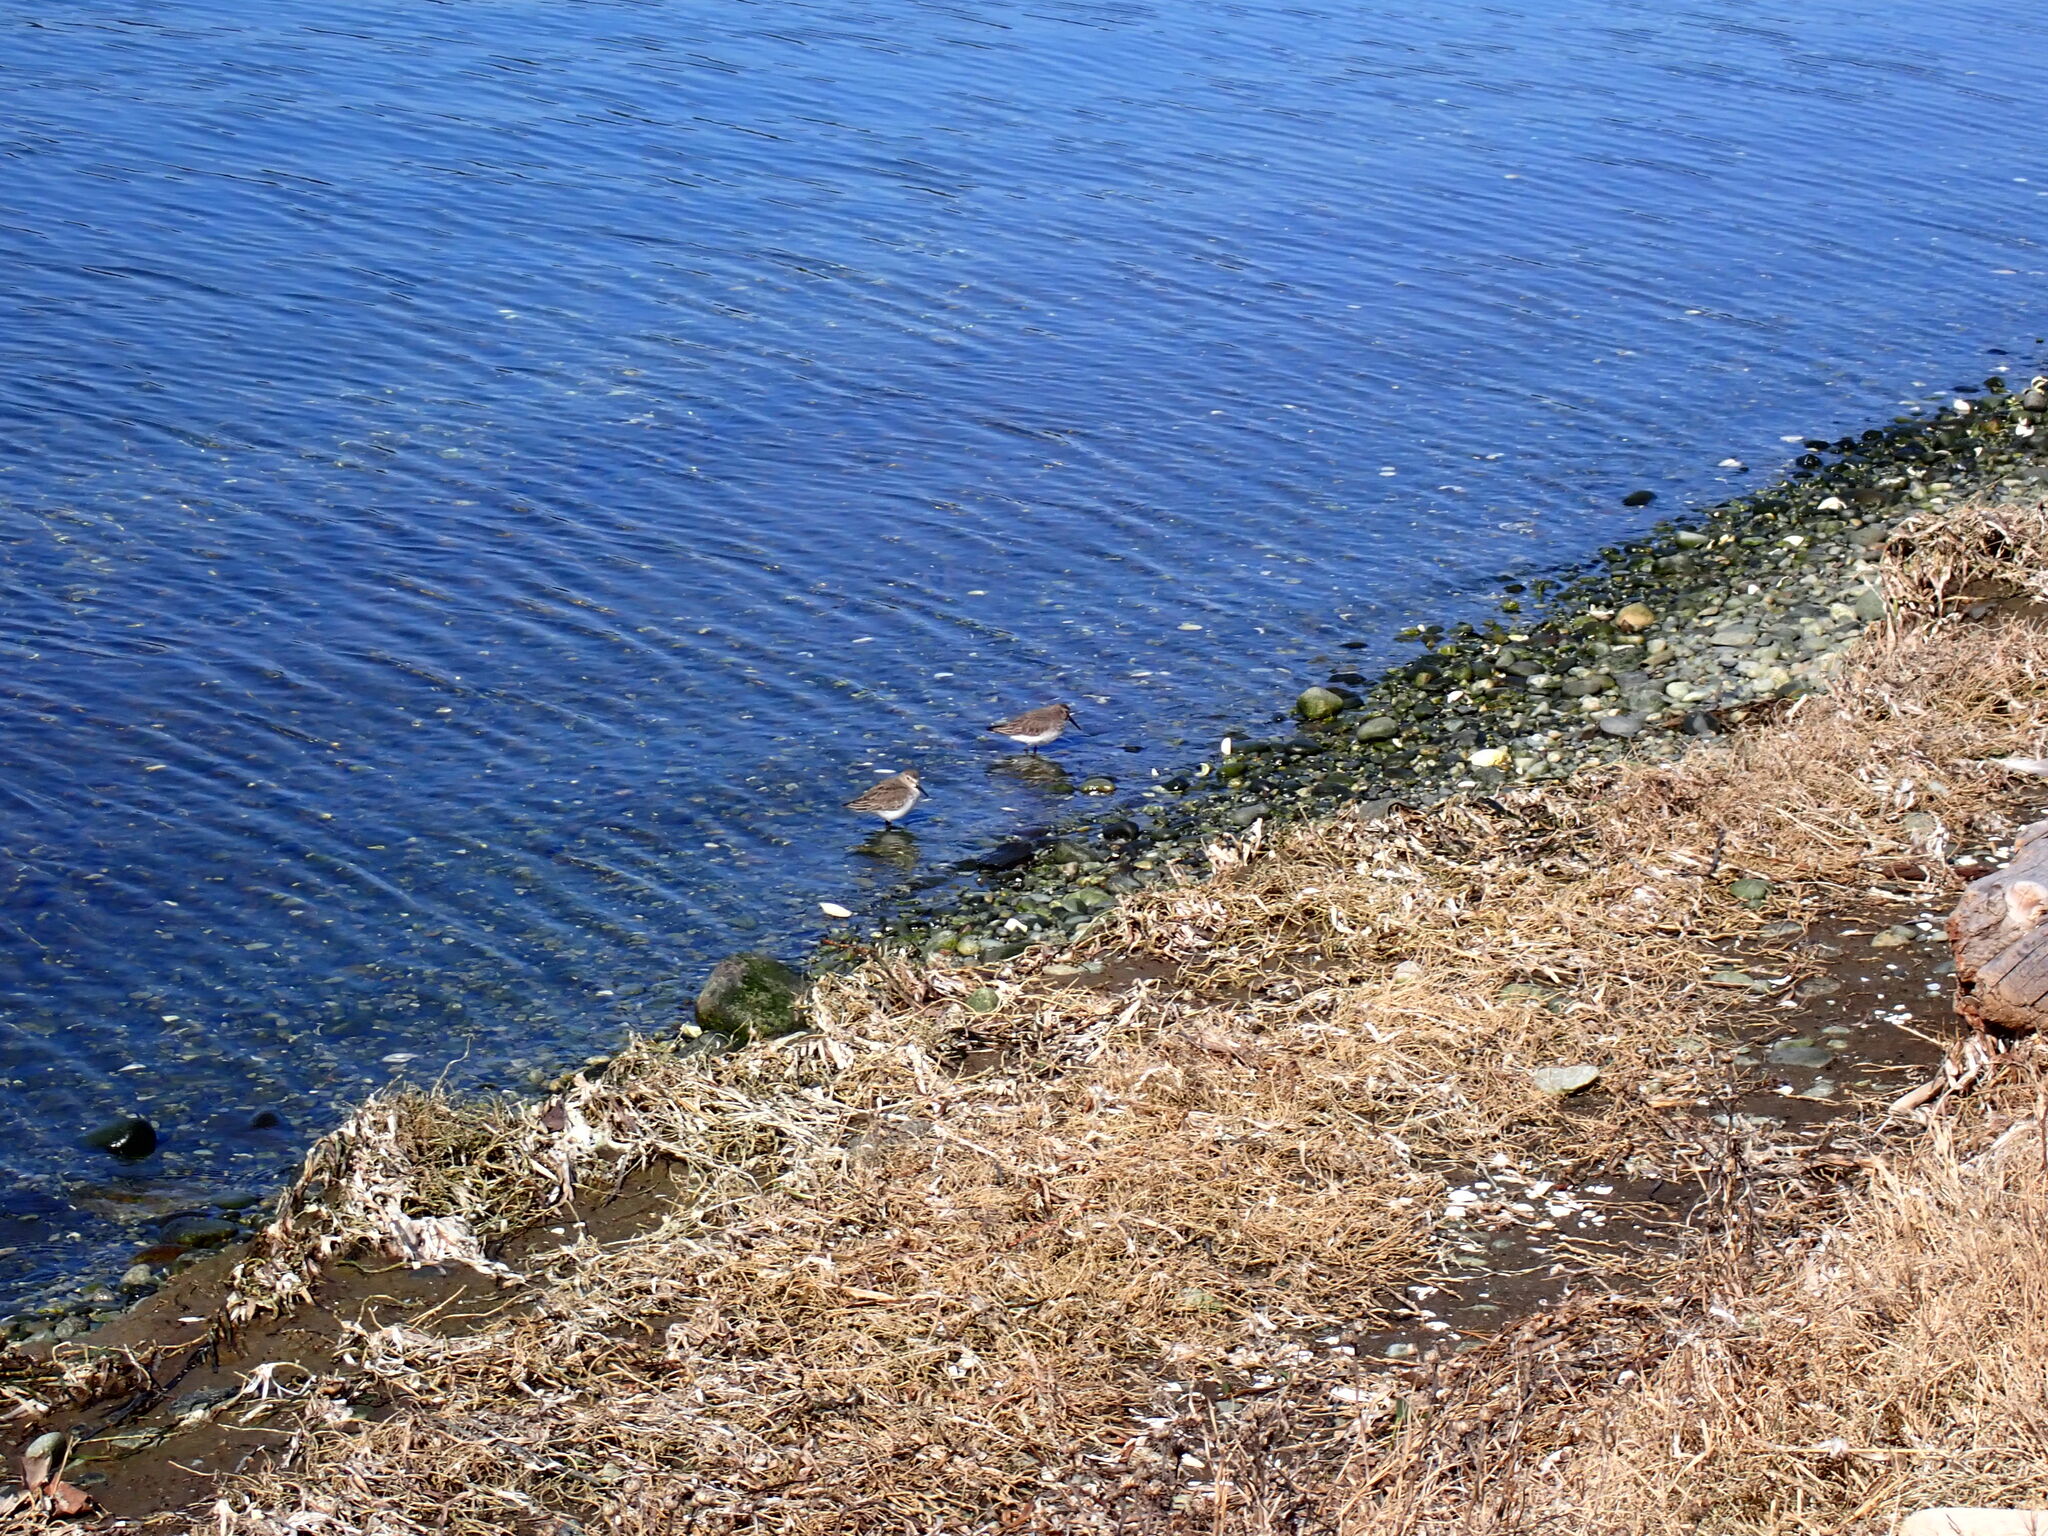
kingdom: Animalia
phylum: Chordata
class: Aves
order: Charadriiformes
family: Scolopacidae
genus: Calidris
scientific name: Calidris alpina
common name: Dunlin
